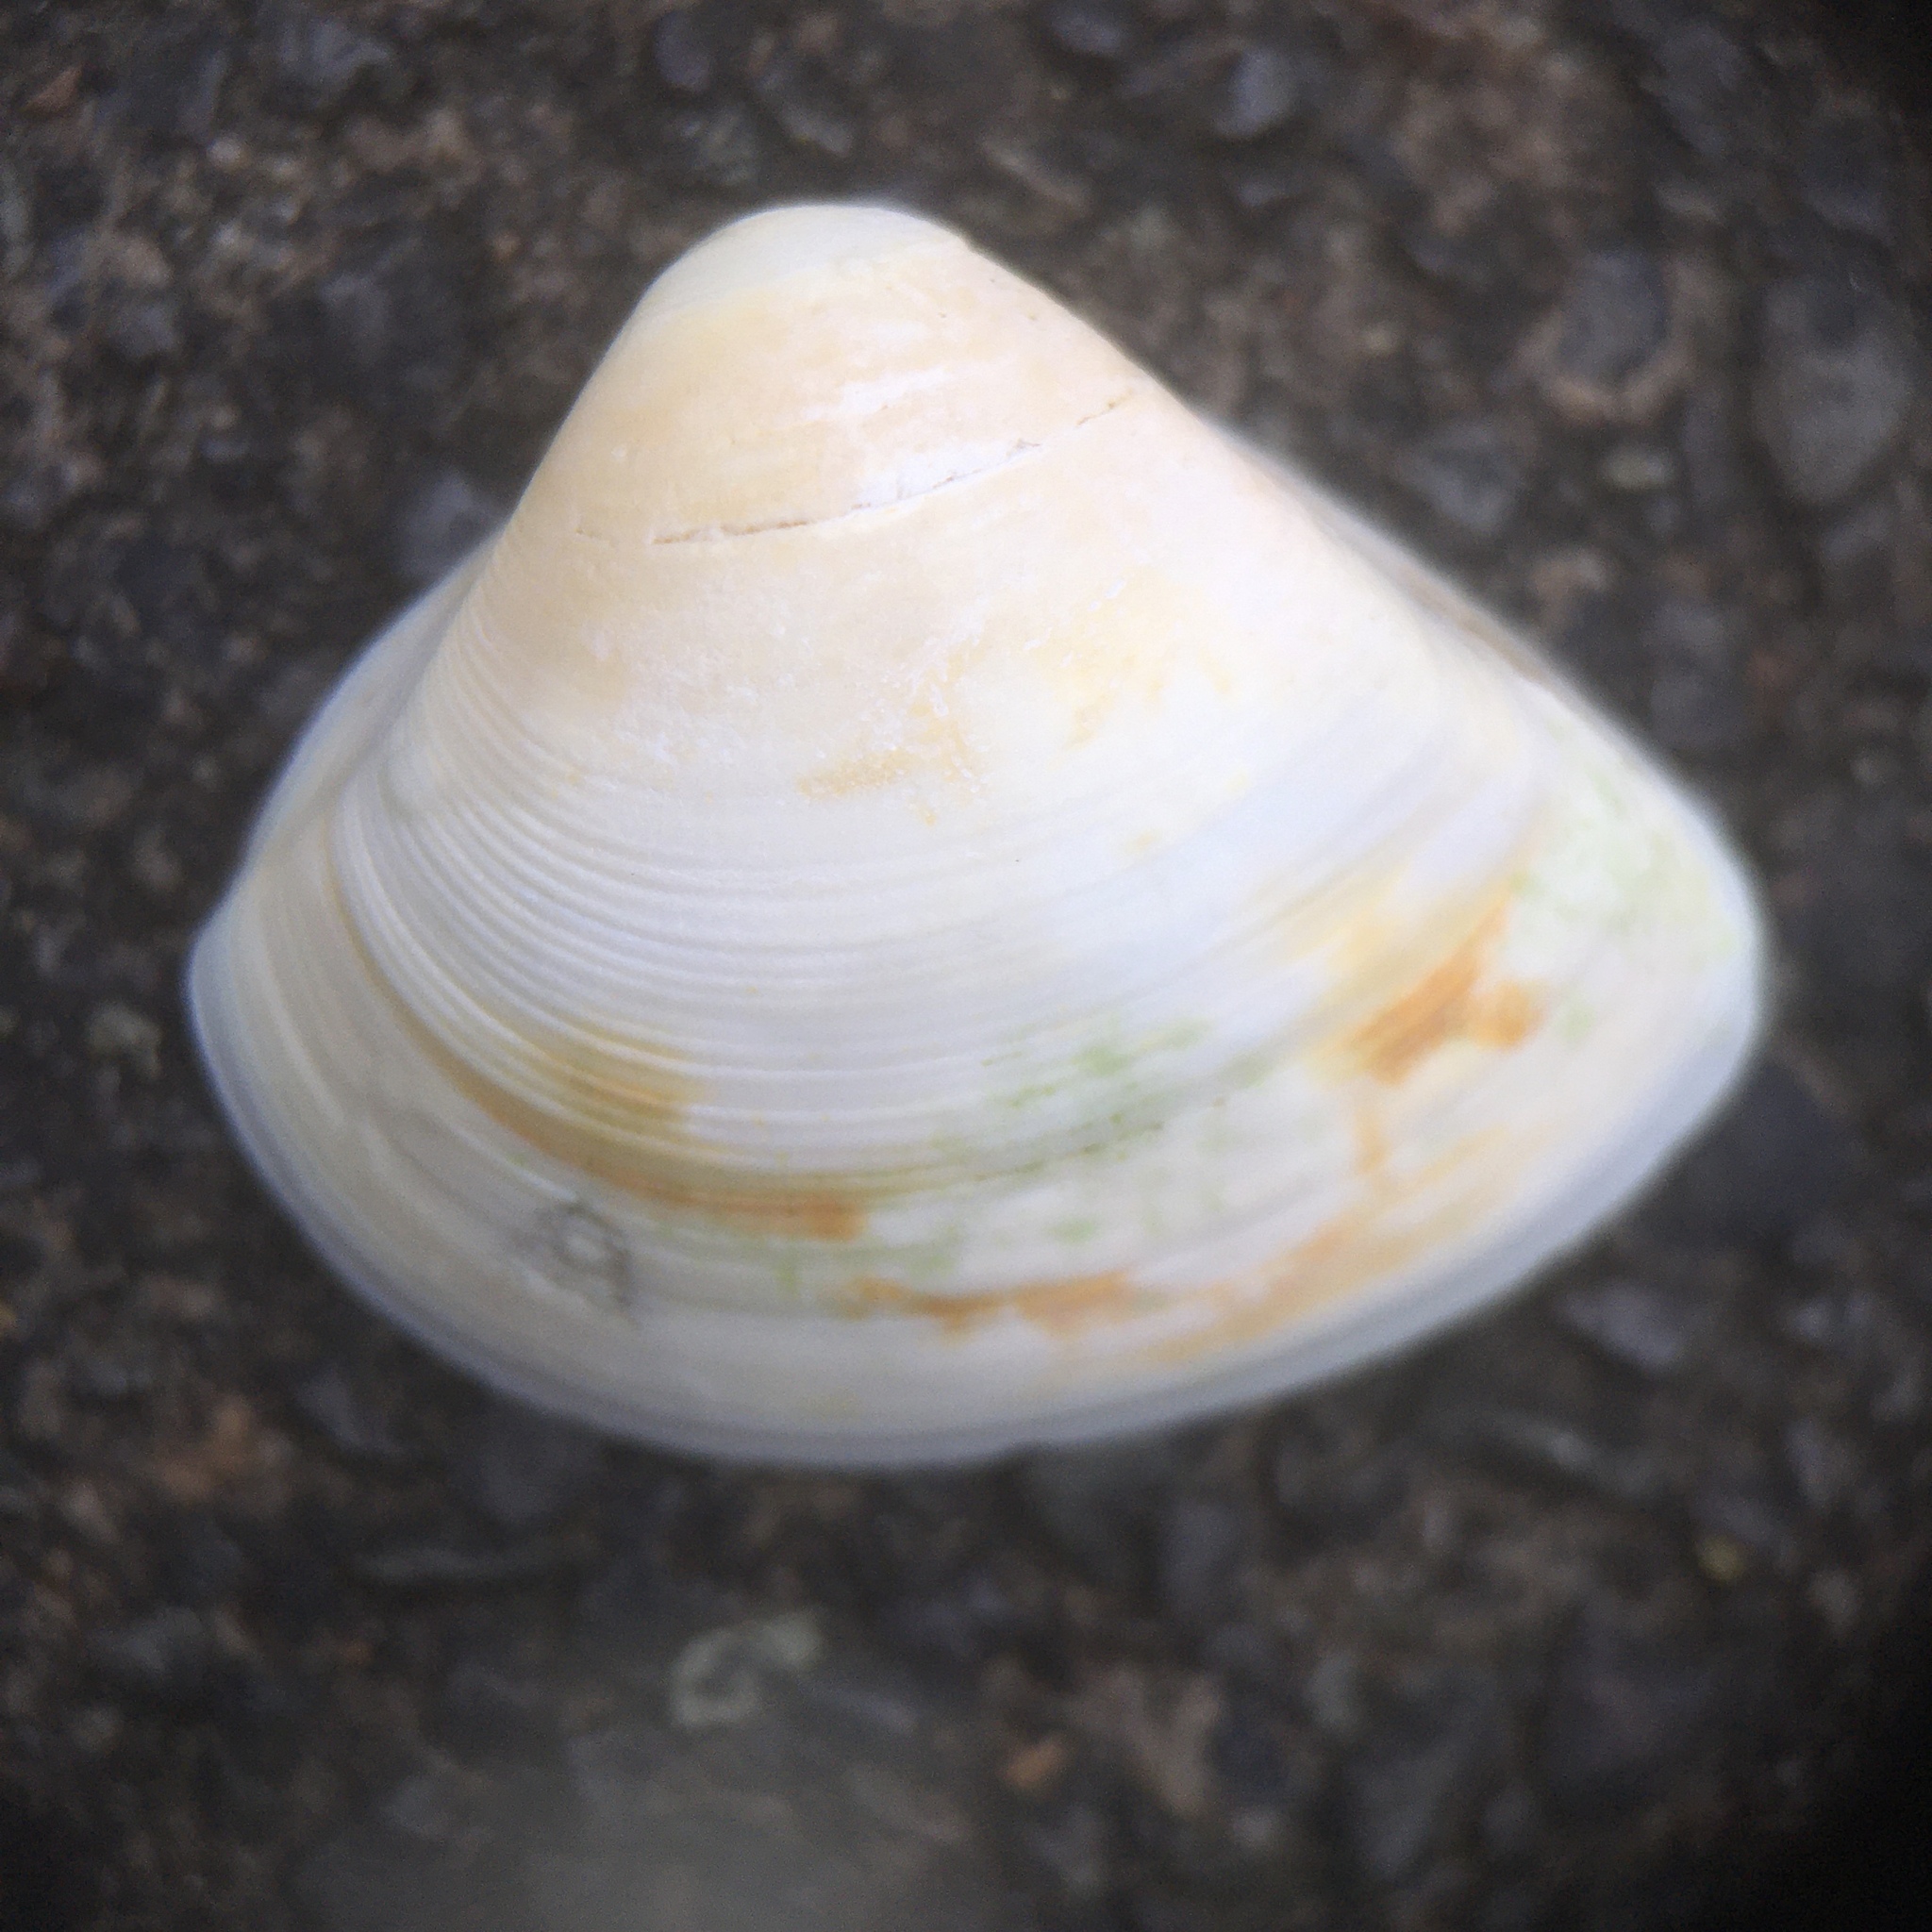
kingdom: Animalia
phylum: Mollusca
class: Bivalvia
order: Venerida
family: Mactridae
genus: Spisula
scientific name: Spisula subtruncata
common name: Cut trough shell
